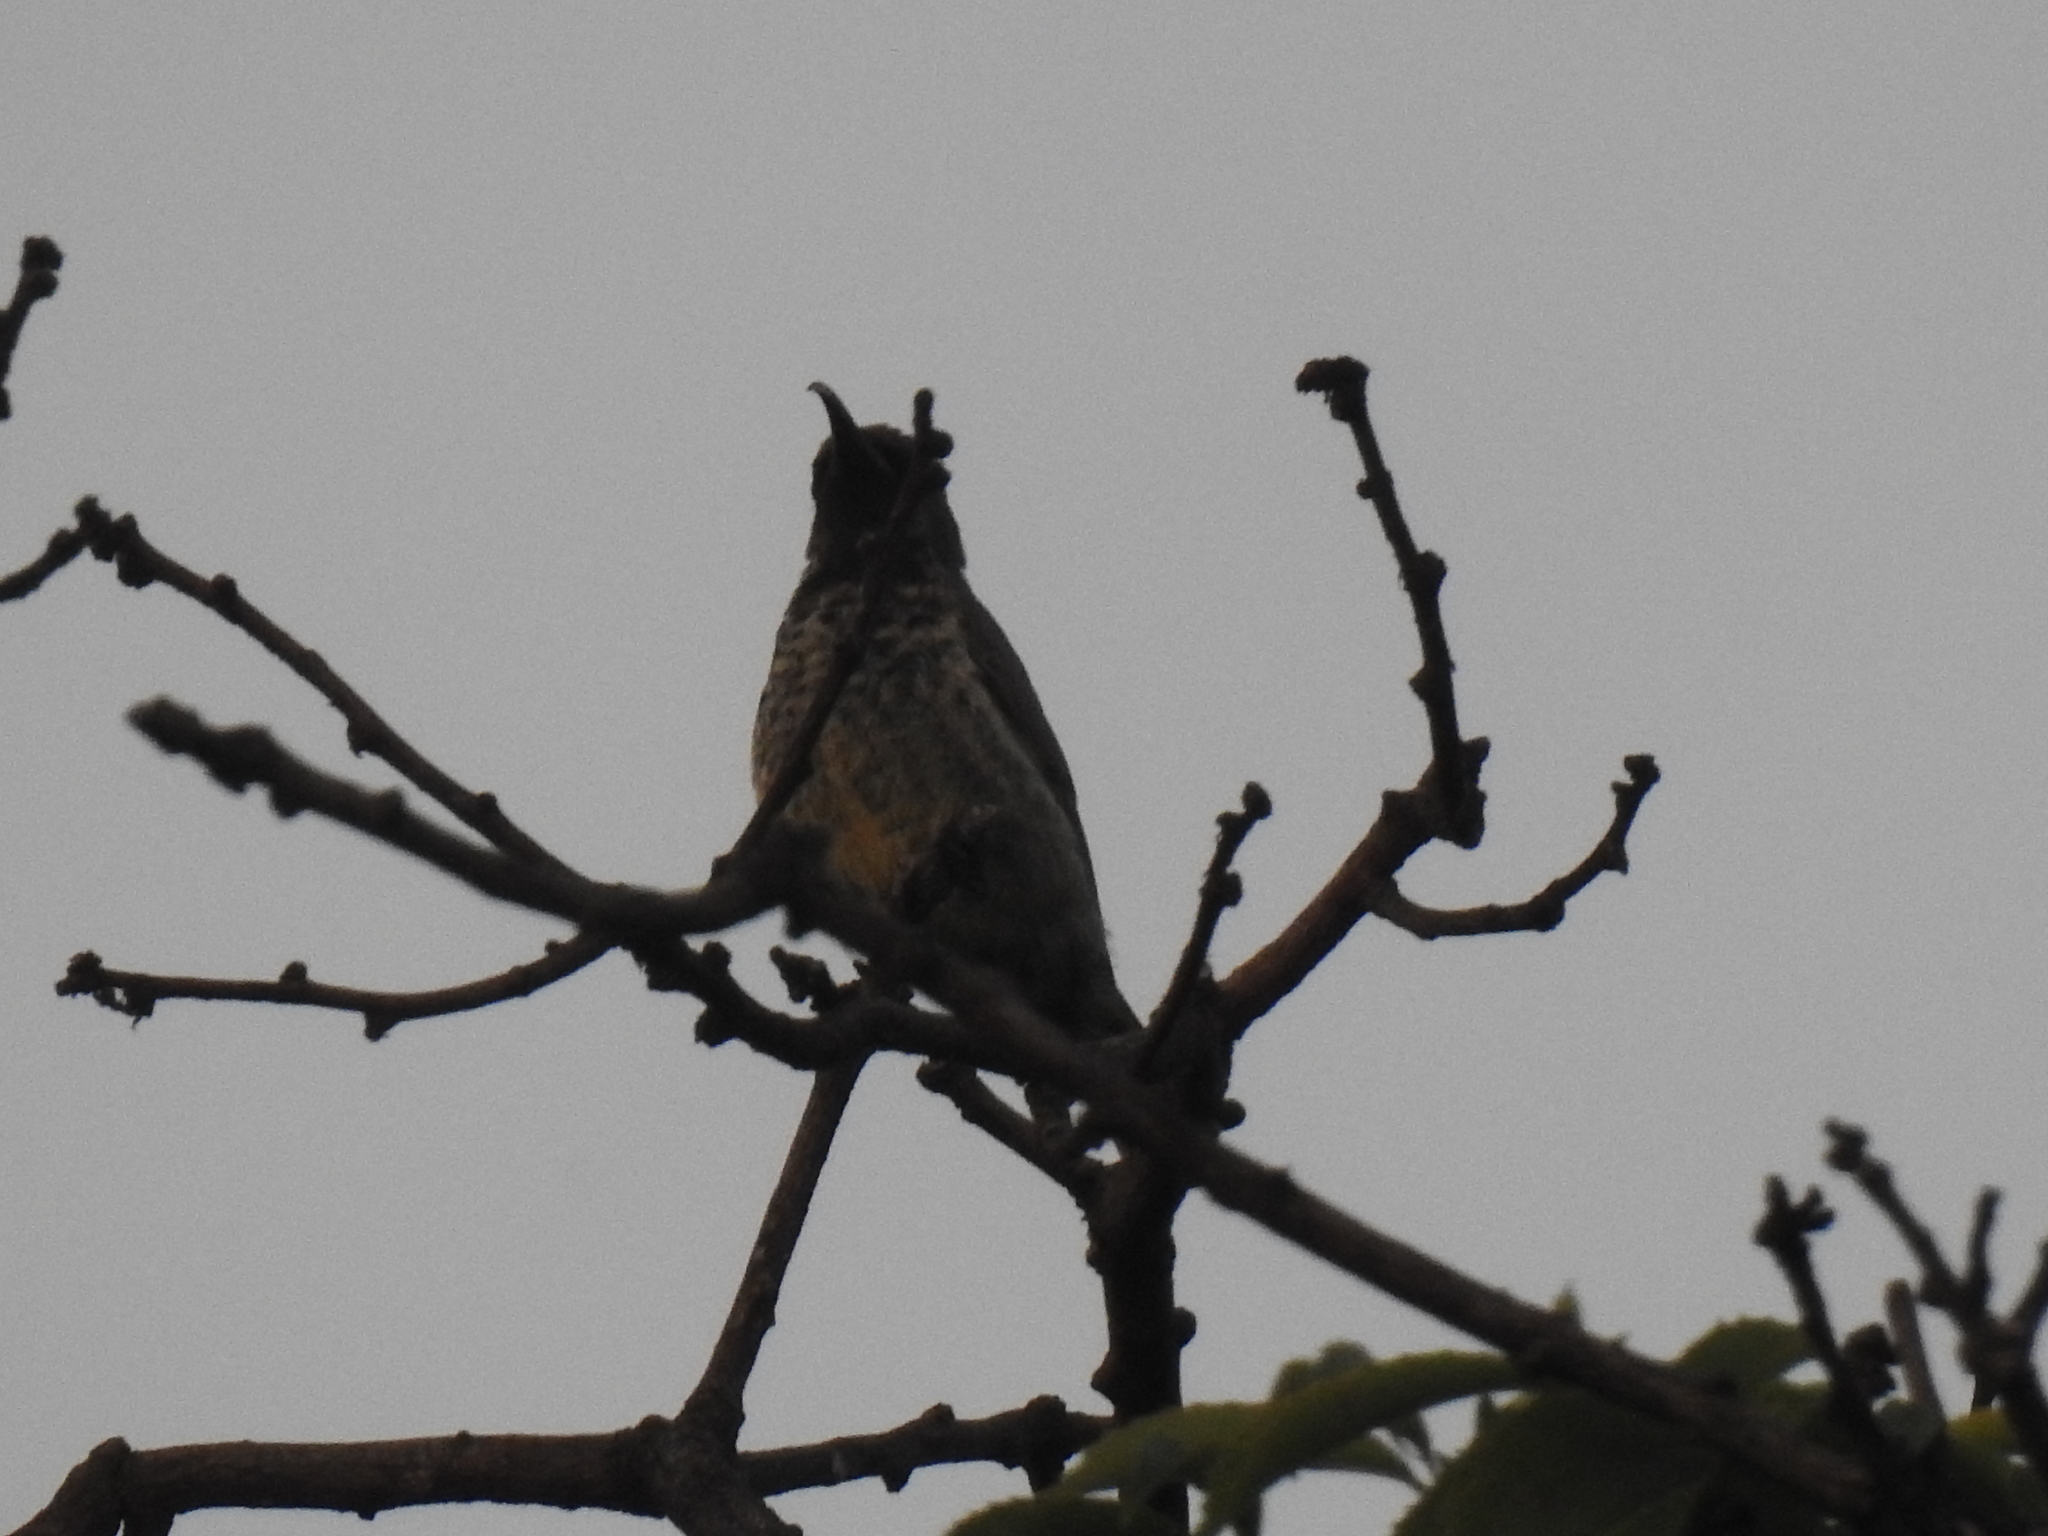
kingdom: Animalia
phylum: Chordata
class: Aves
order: Passeriformes
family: Nectariniidae
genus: Chalcomitra
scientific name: Chalcomitra amethystina
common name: Amethyst sunbird
